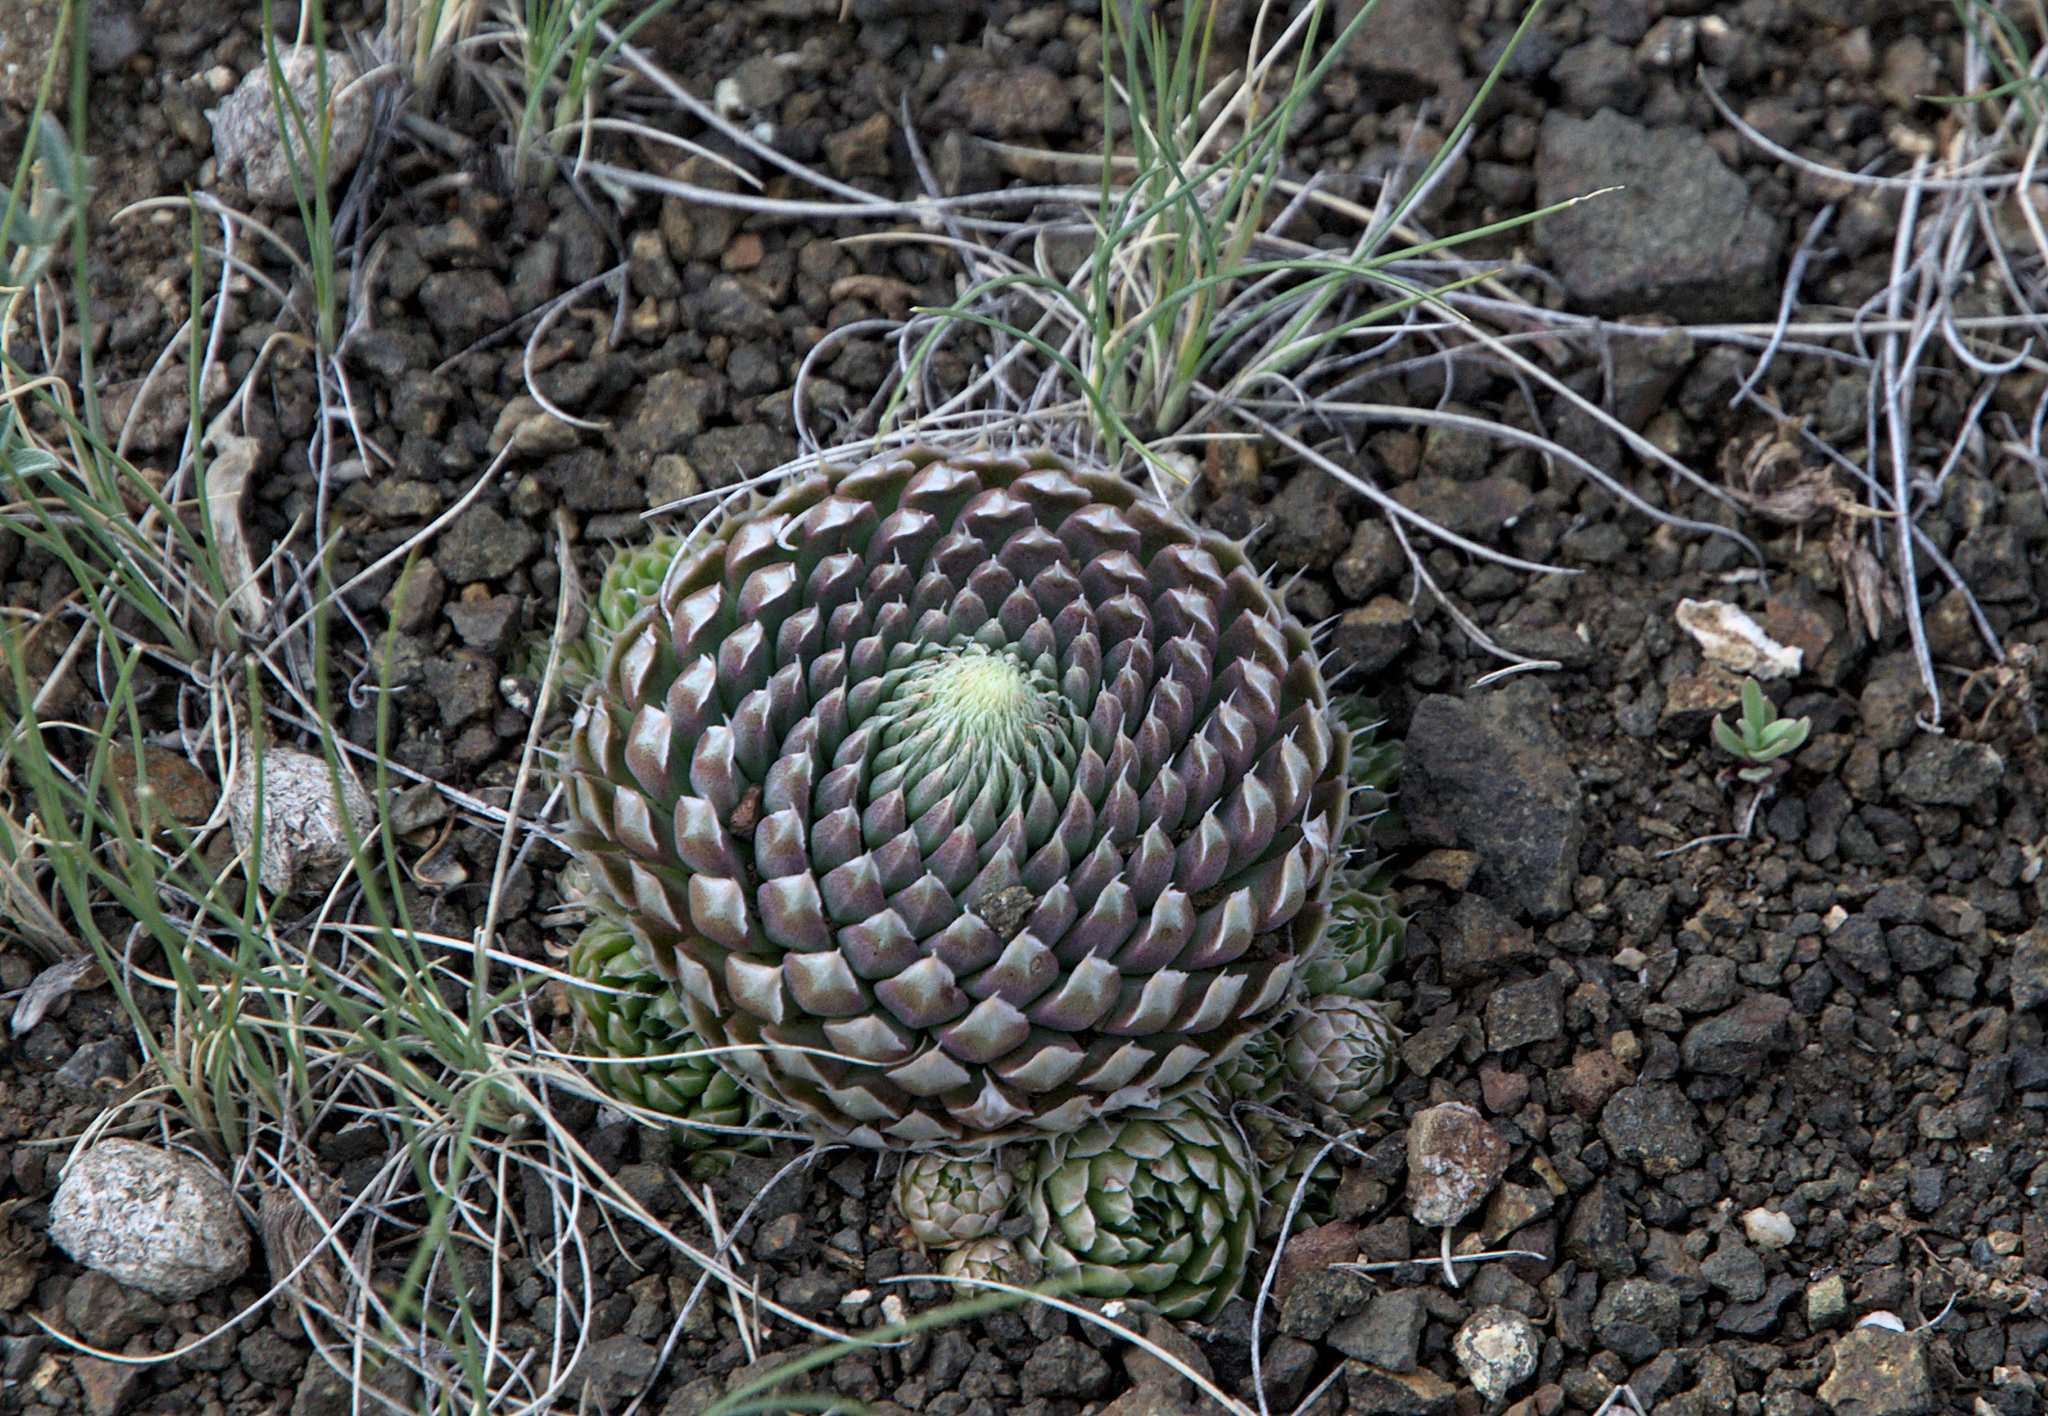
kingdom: Plantae
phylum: Tracheophyta
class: Magnoliopsida
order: Saxifragales
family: Crassulaceae
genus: Orostachys
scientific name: Orostachys spinosa
